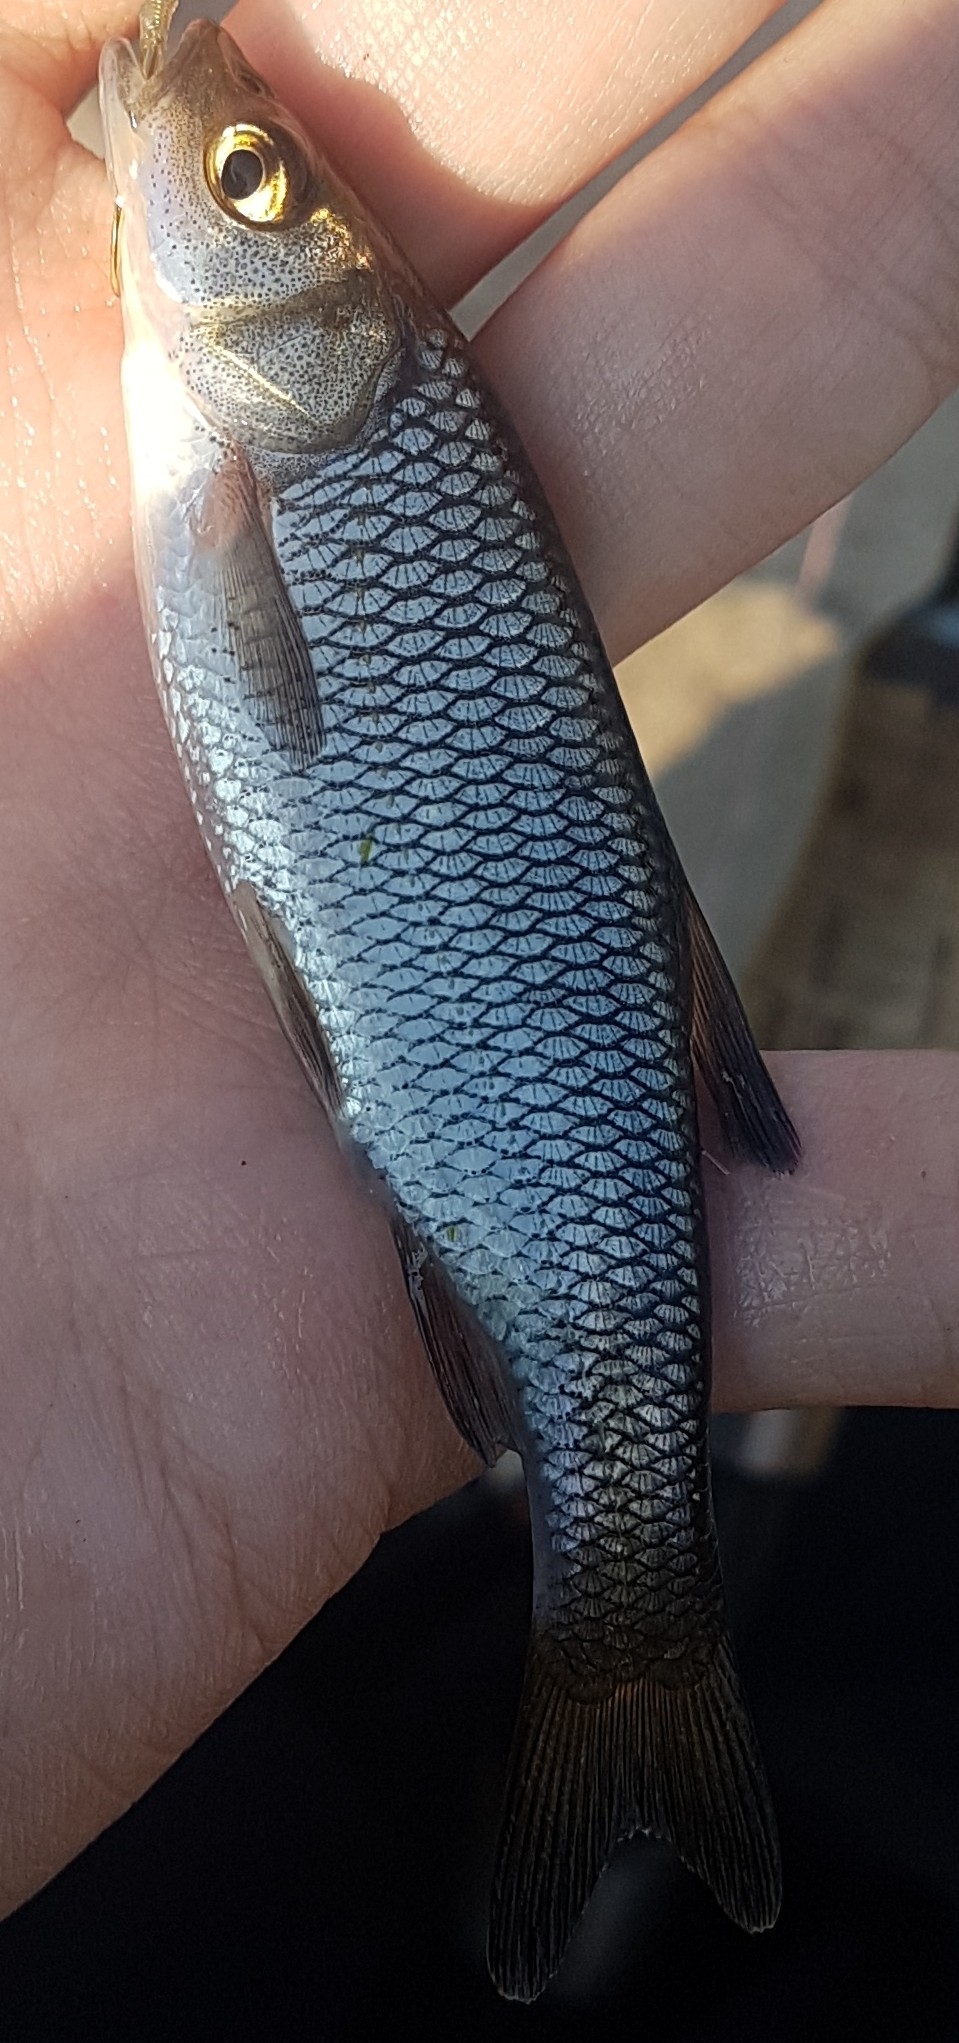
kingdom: Animalia
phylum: Chordata
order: Cypriniformes
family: Cyprinidae
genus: Squalius
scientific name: Squalius cephalus
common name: Chub
